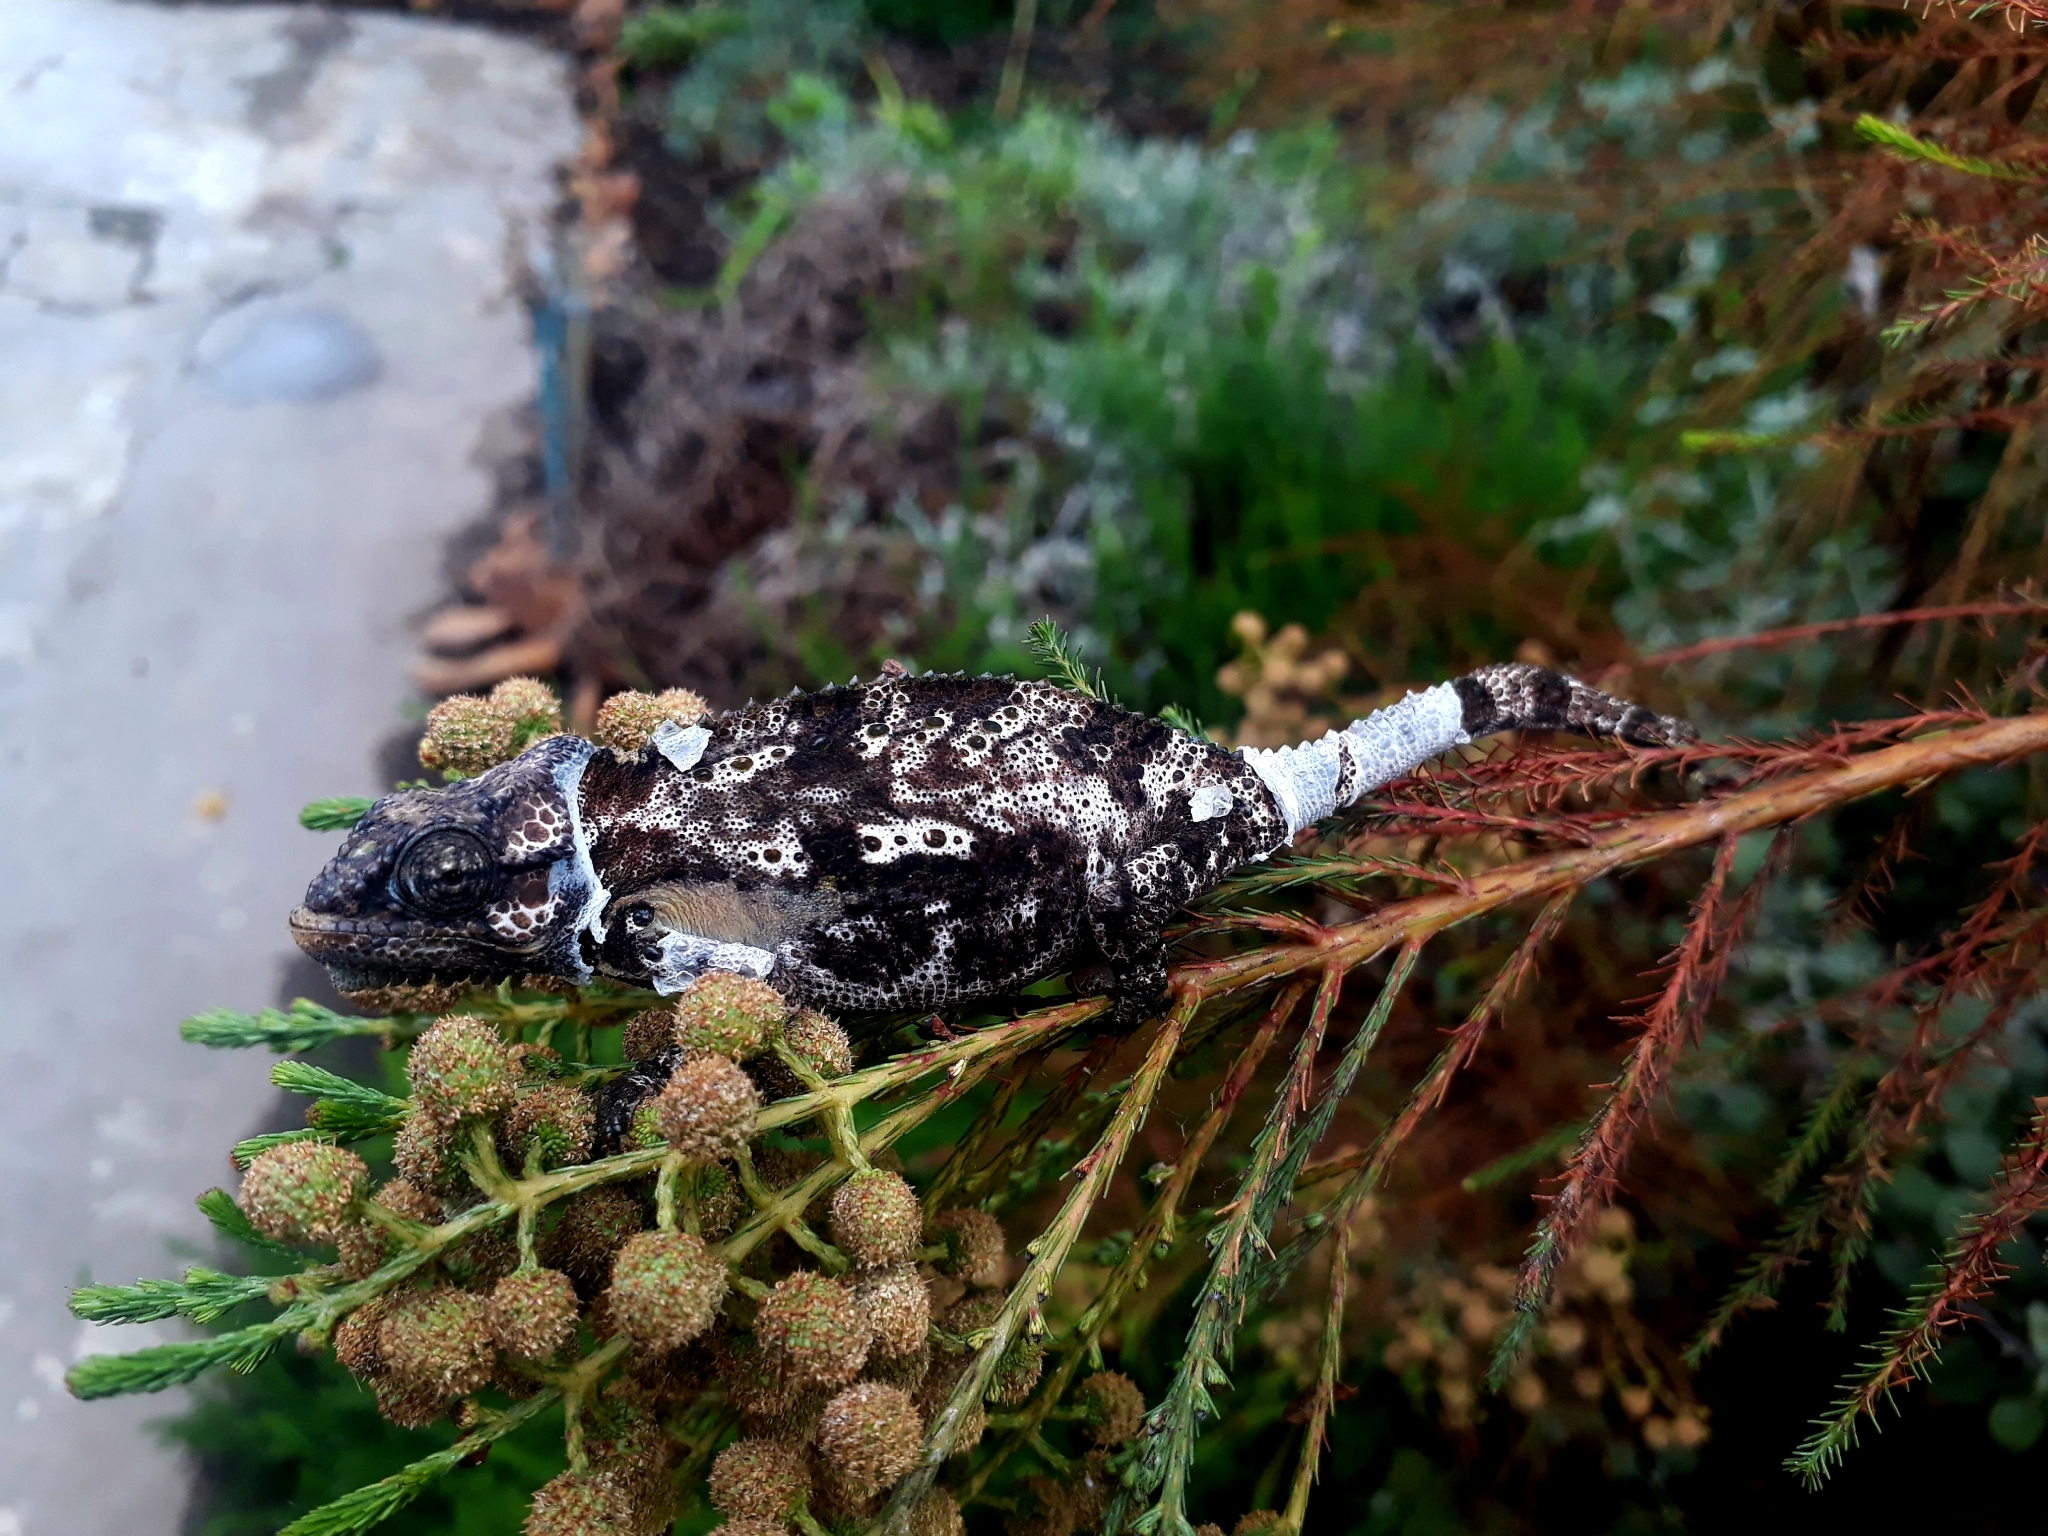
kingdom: Animalia
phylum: Chordata
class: Squamata
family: Chamaeleonidae
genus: Bradypodion
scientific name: Bradypodion damaranum
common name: Knysna dwarf chameleon
